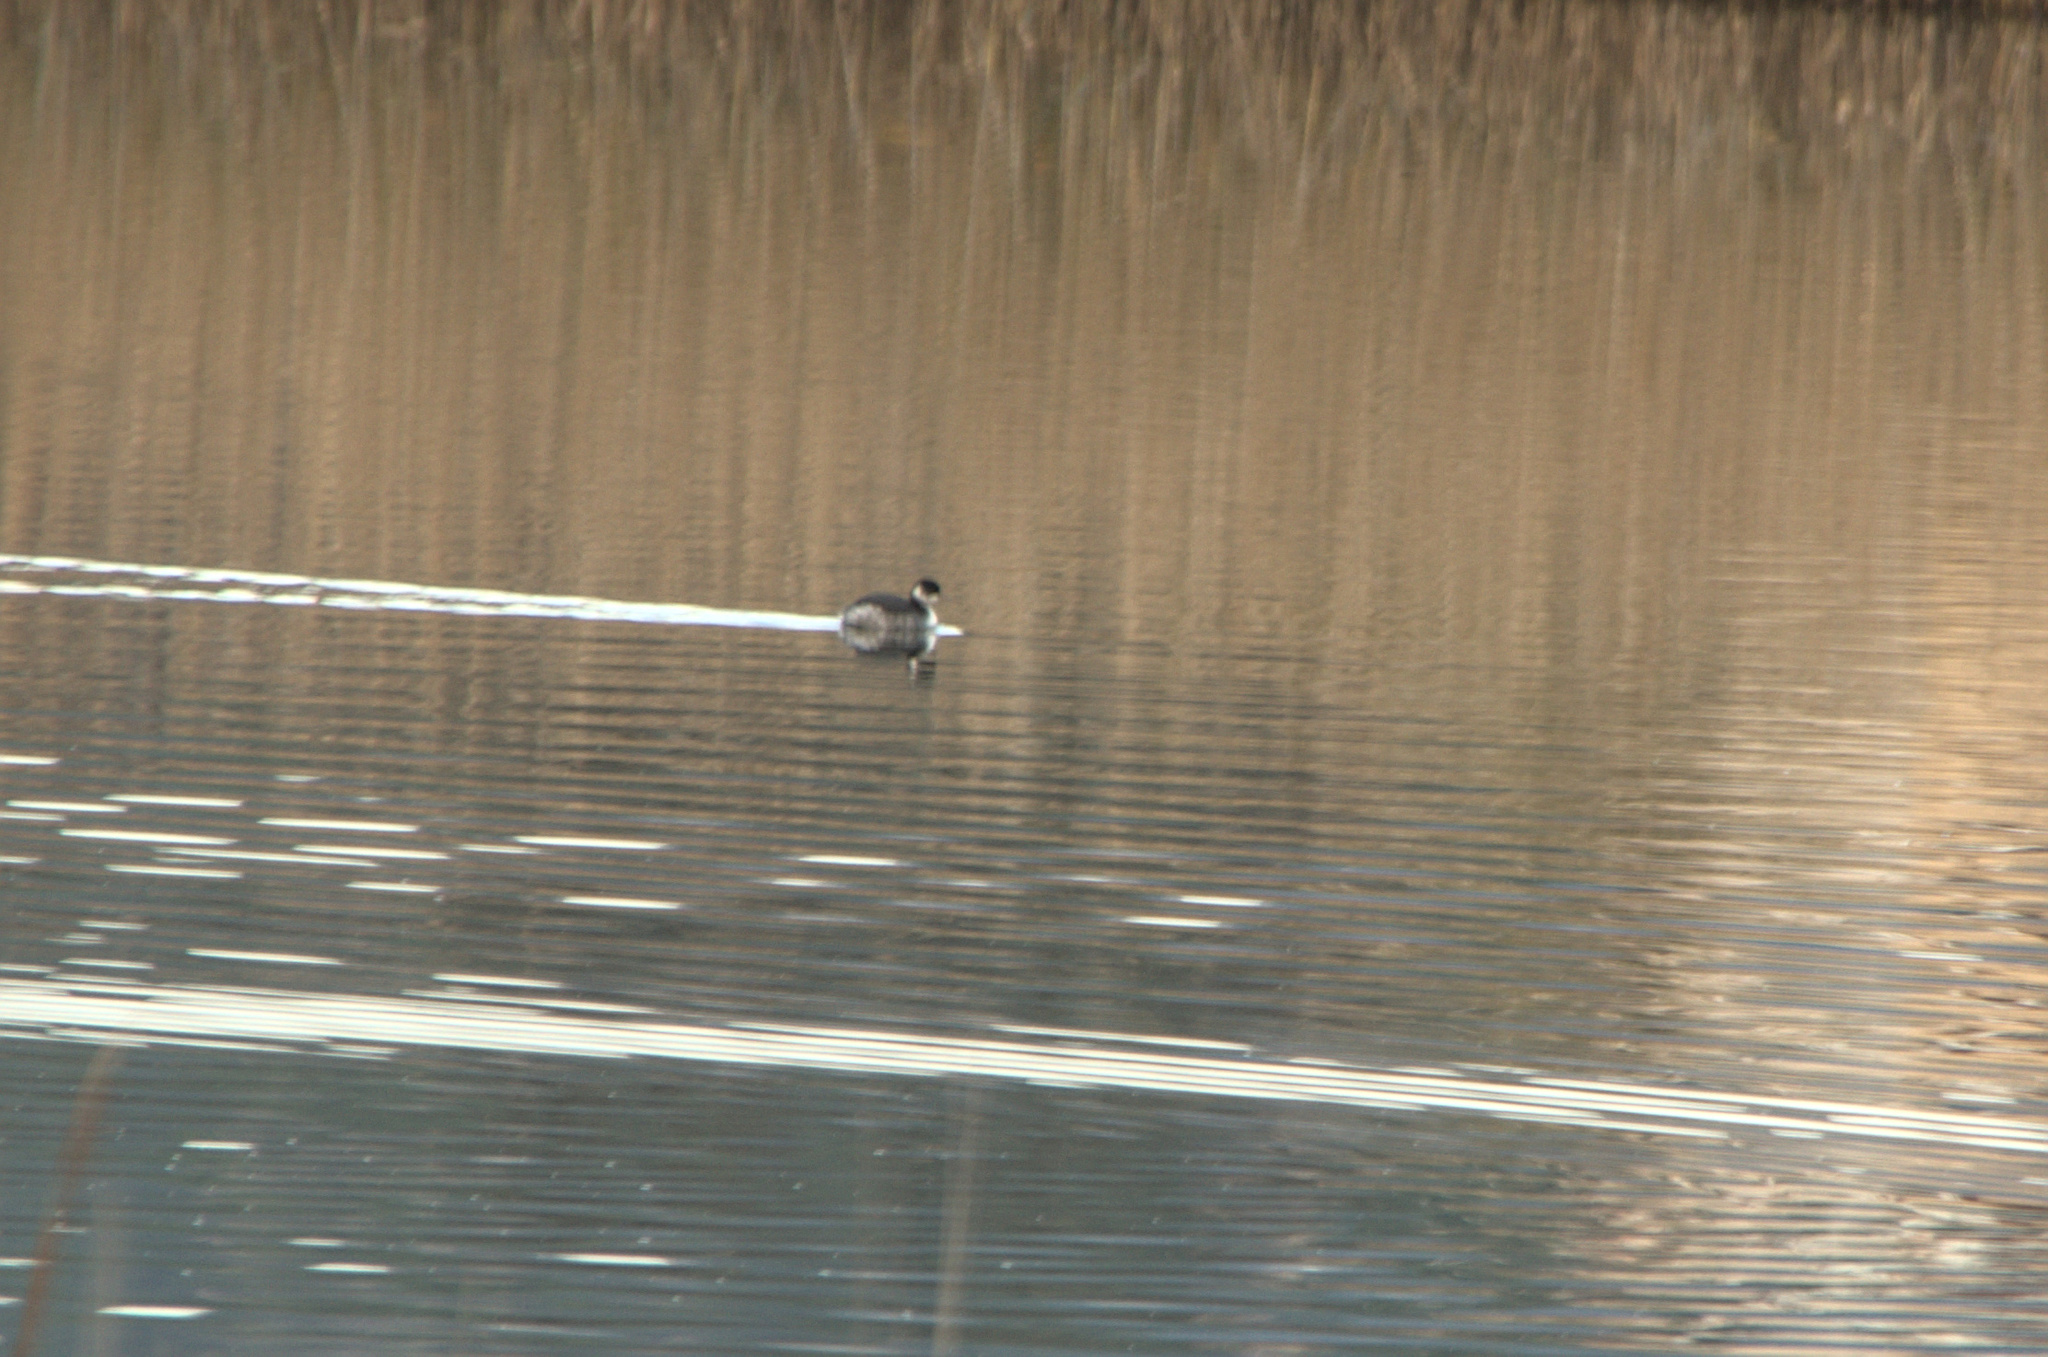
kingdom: Animalia
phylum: Chordata
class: Aves
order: Podicipediformes
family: Podicipedidae
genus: Podiceps
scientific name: Podiceps nigricollis
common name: Black-necked grebe
